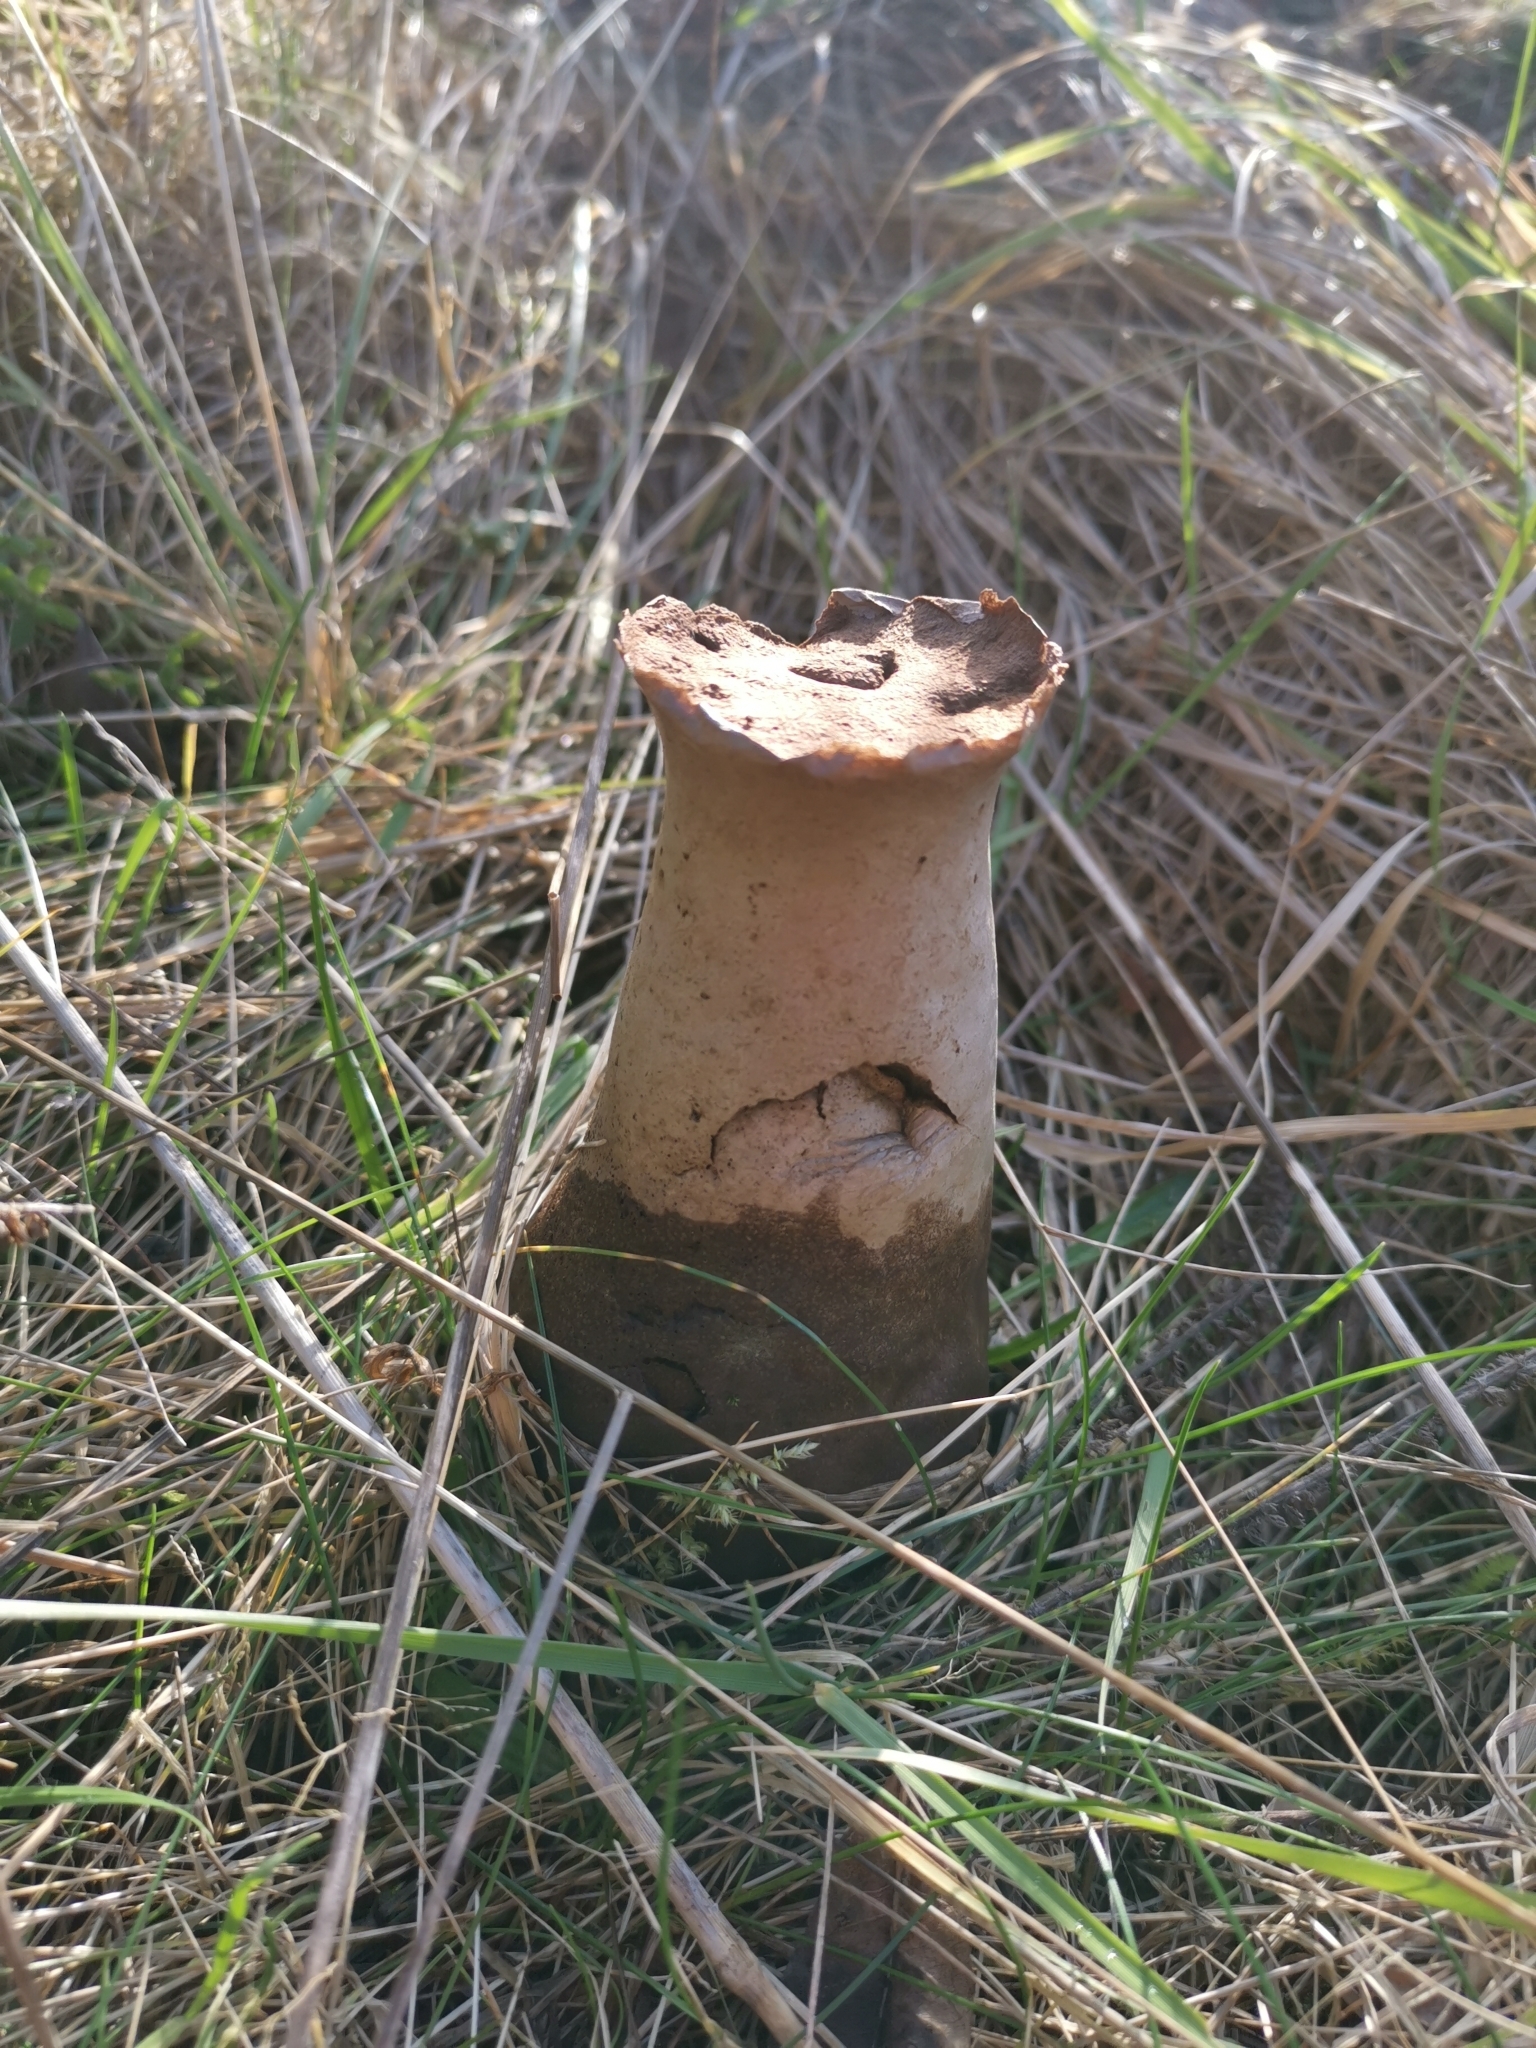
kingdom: Fungi
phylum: Basidiomycota
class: Agaricomycetes
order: Agaricales
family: Lycoperdaceae
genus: Lycoperdon
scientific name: Lycoperdon excipuliforme
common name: Pestle puffball
